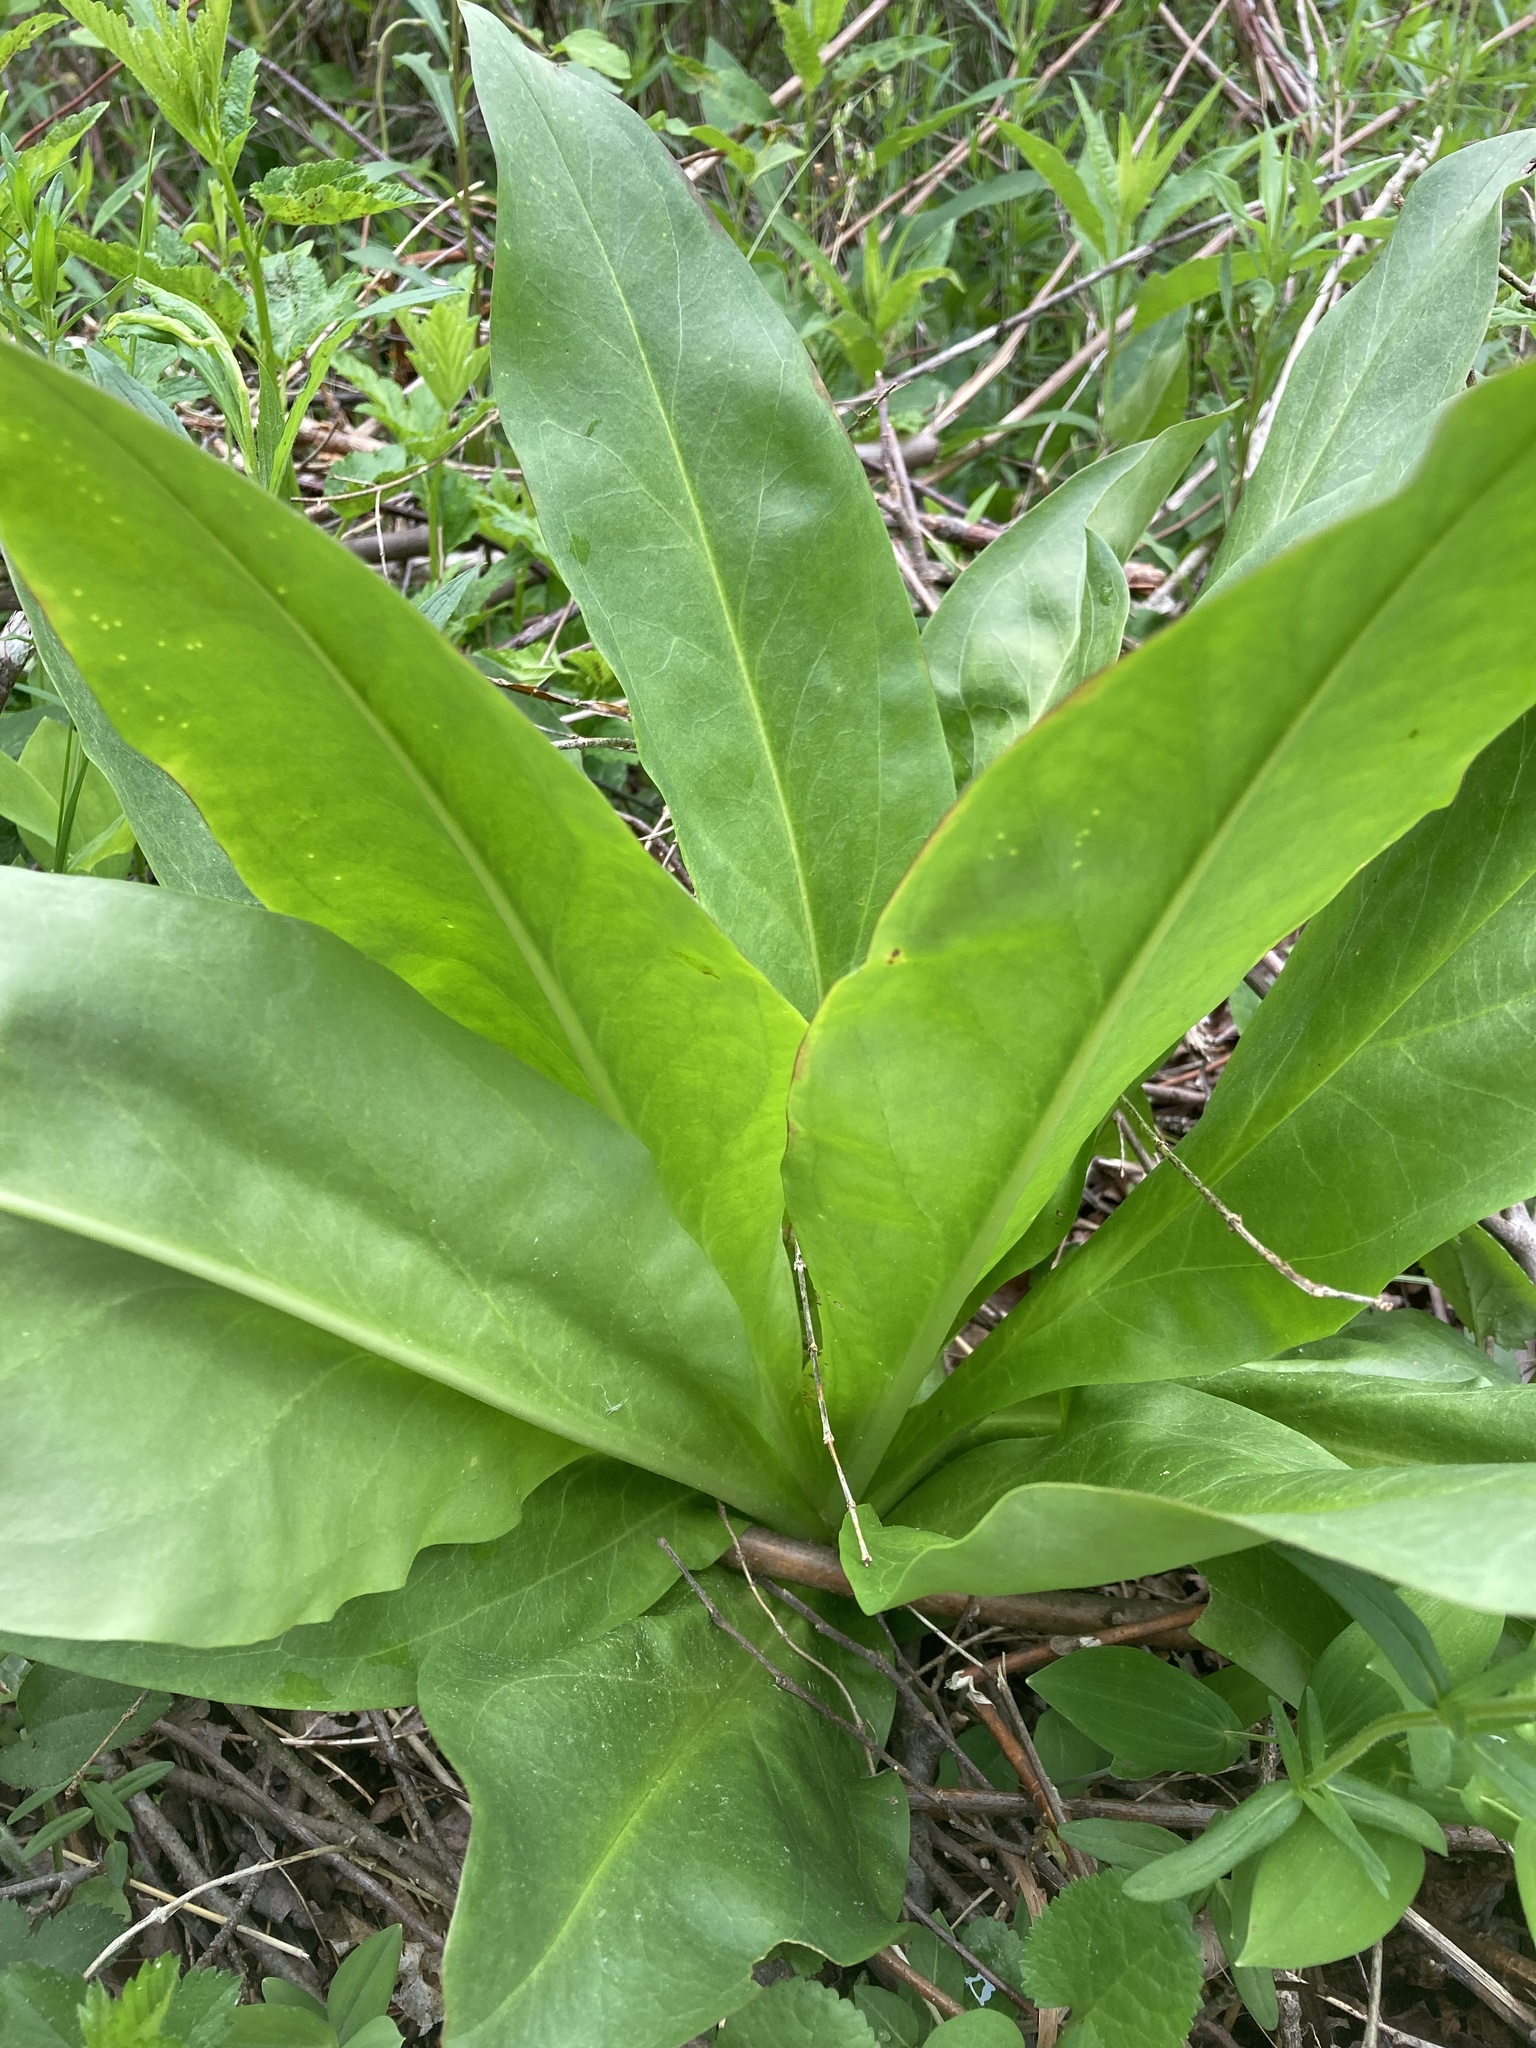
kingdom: Plantae
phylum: Tracheophyta
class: Magnoliopsida
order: Gentianales
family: Gentianaceae
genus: Frasera
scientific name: Frasera caroliniensis
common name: American columbo
